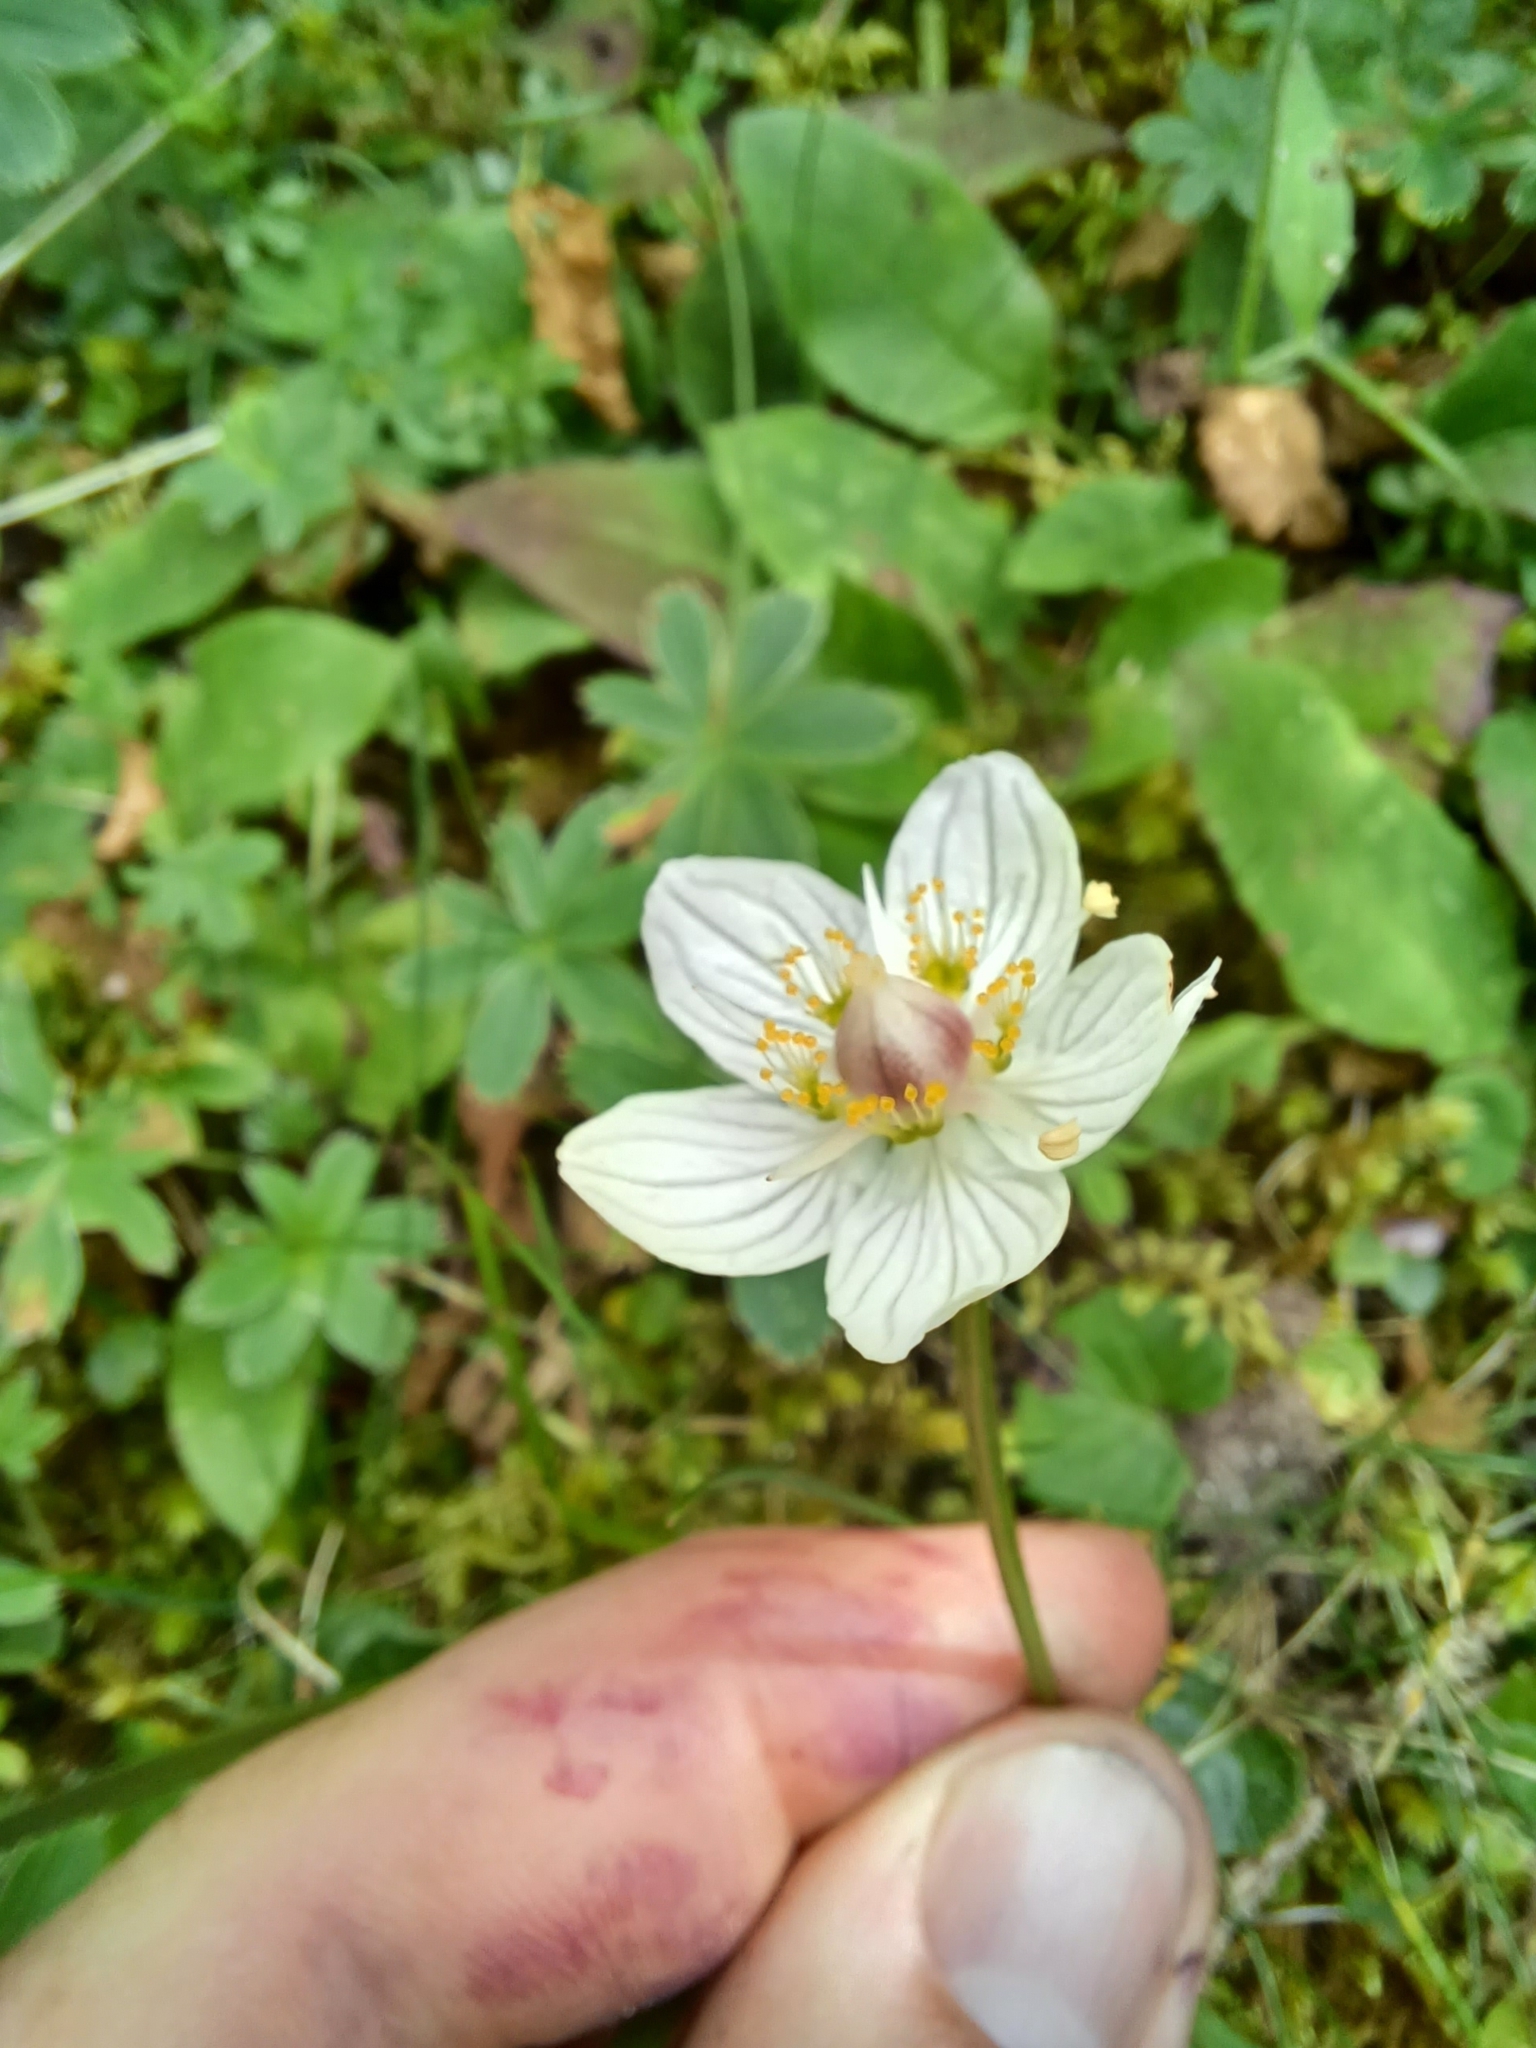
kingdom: Plantae
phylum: Tracheophyta
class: Magnoliopsida
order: Celastrales
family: Parnassiaceae
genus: Parnassia
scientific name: Parnassia palustris
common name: Grass-of-parnassus
